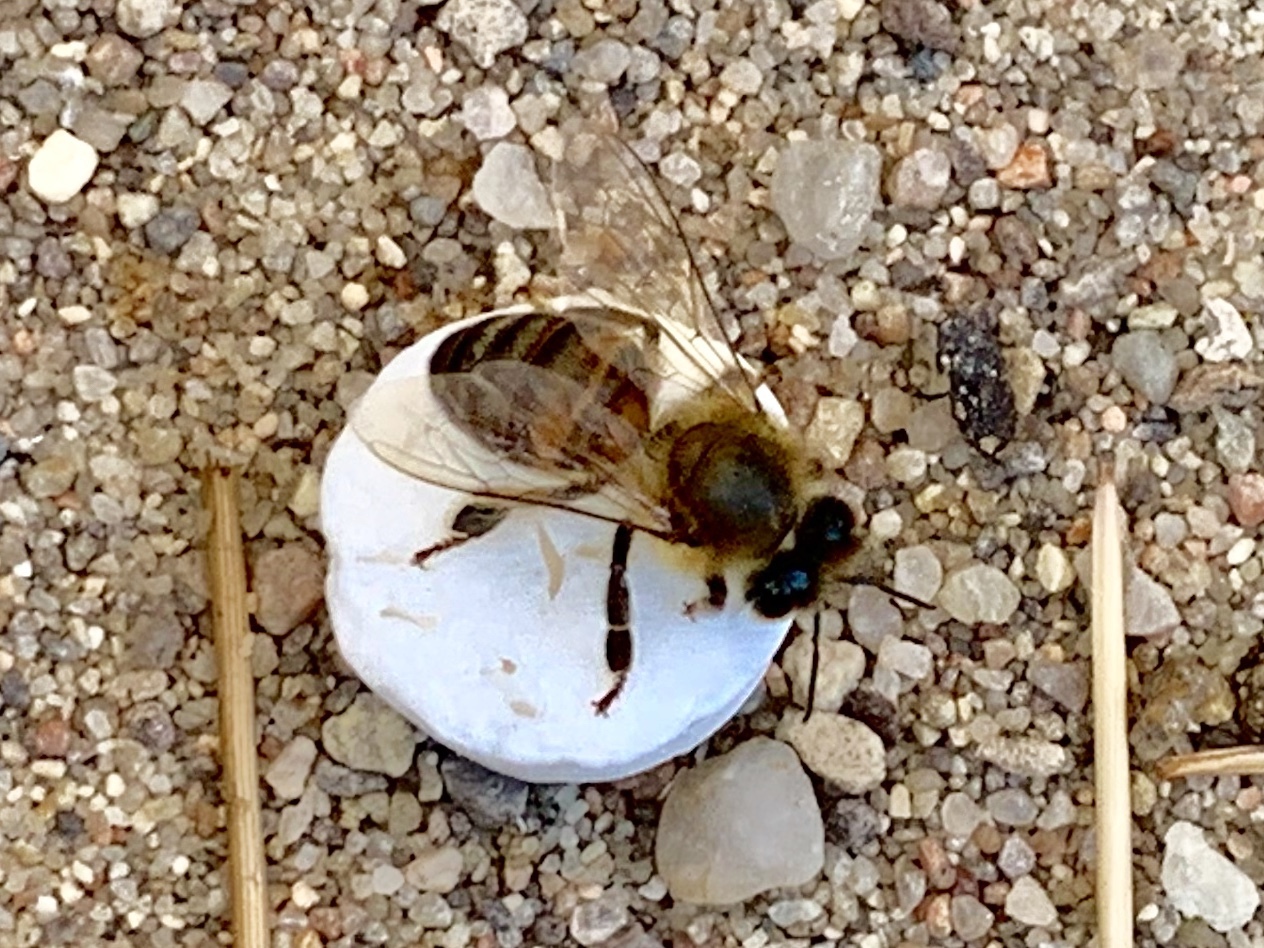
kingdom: Animalia
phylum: Arthropoda
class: Insecta
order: Hymenoptera
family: Apidae
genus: Apis
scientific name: Apis mellifera
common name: Honey bee
